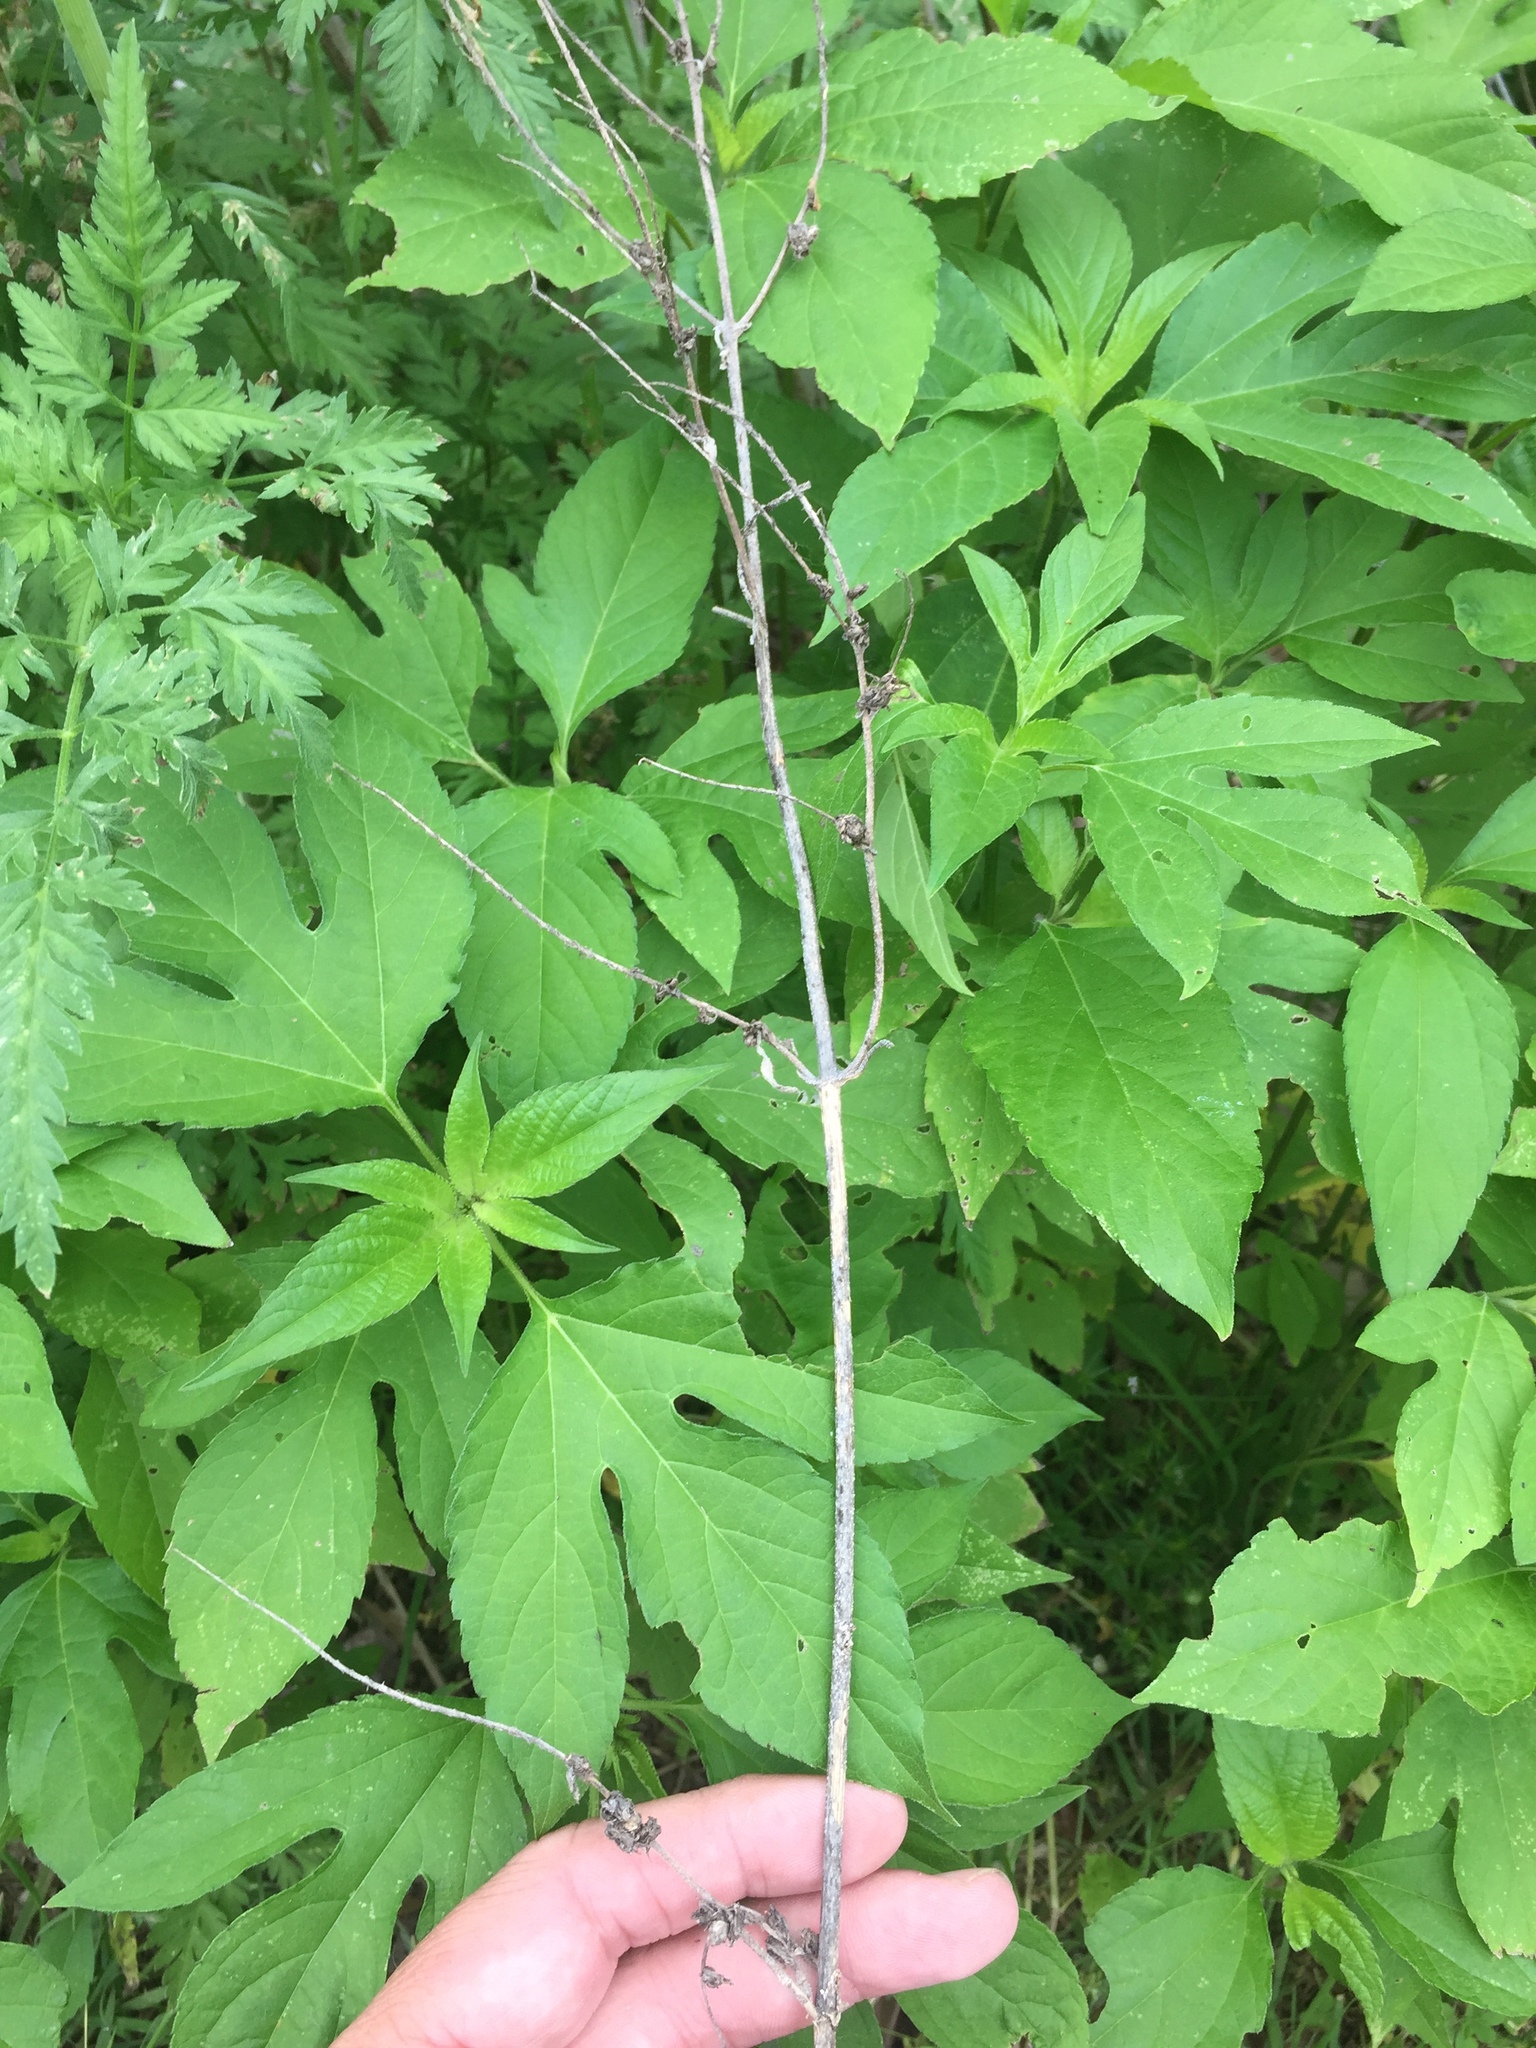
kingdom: Plantae
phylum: Tracheophyta
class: Magnoliopsida
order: Asterales
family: Asteraceae
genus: Ambrosia
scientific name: Ambrosia trifida
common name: Giant ragweed
